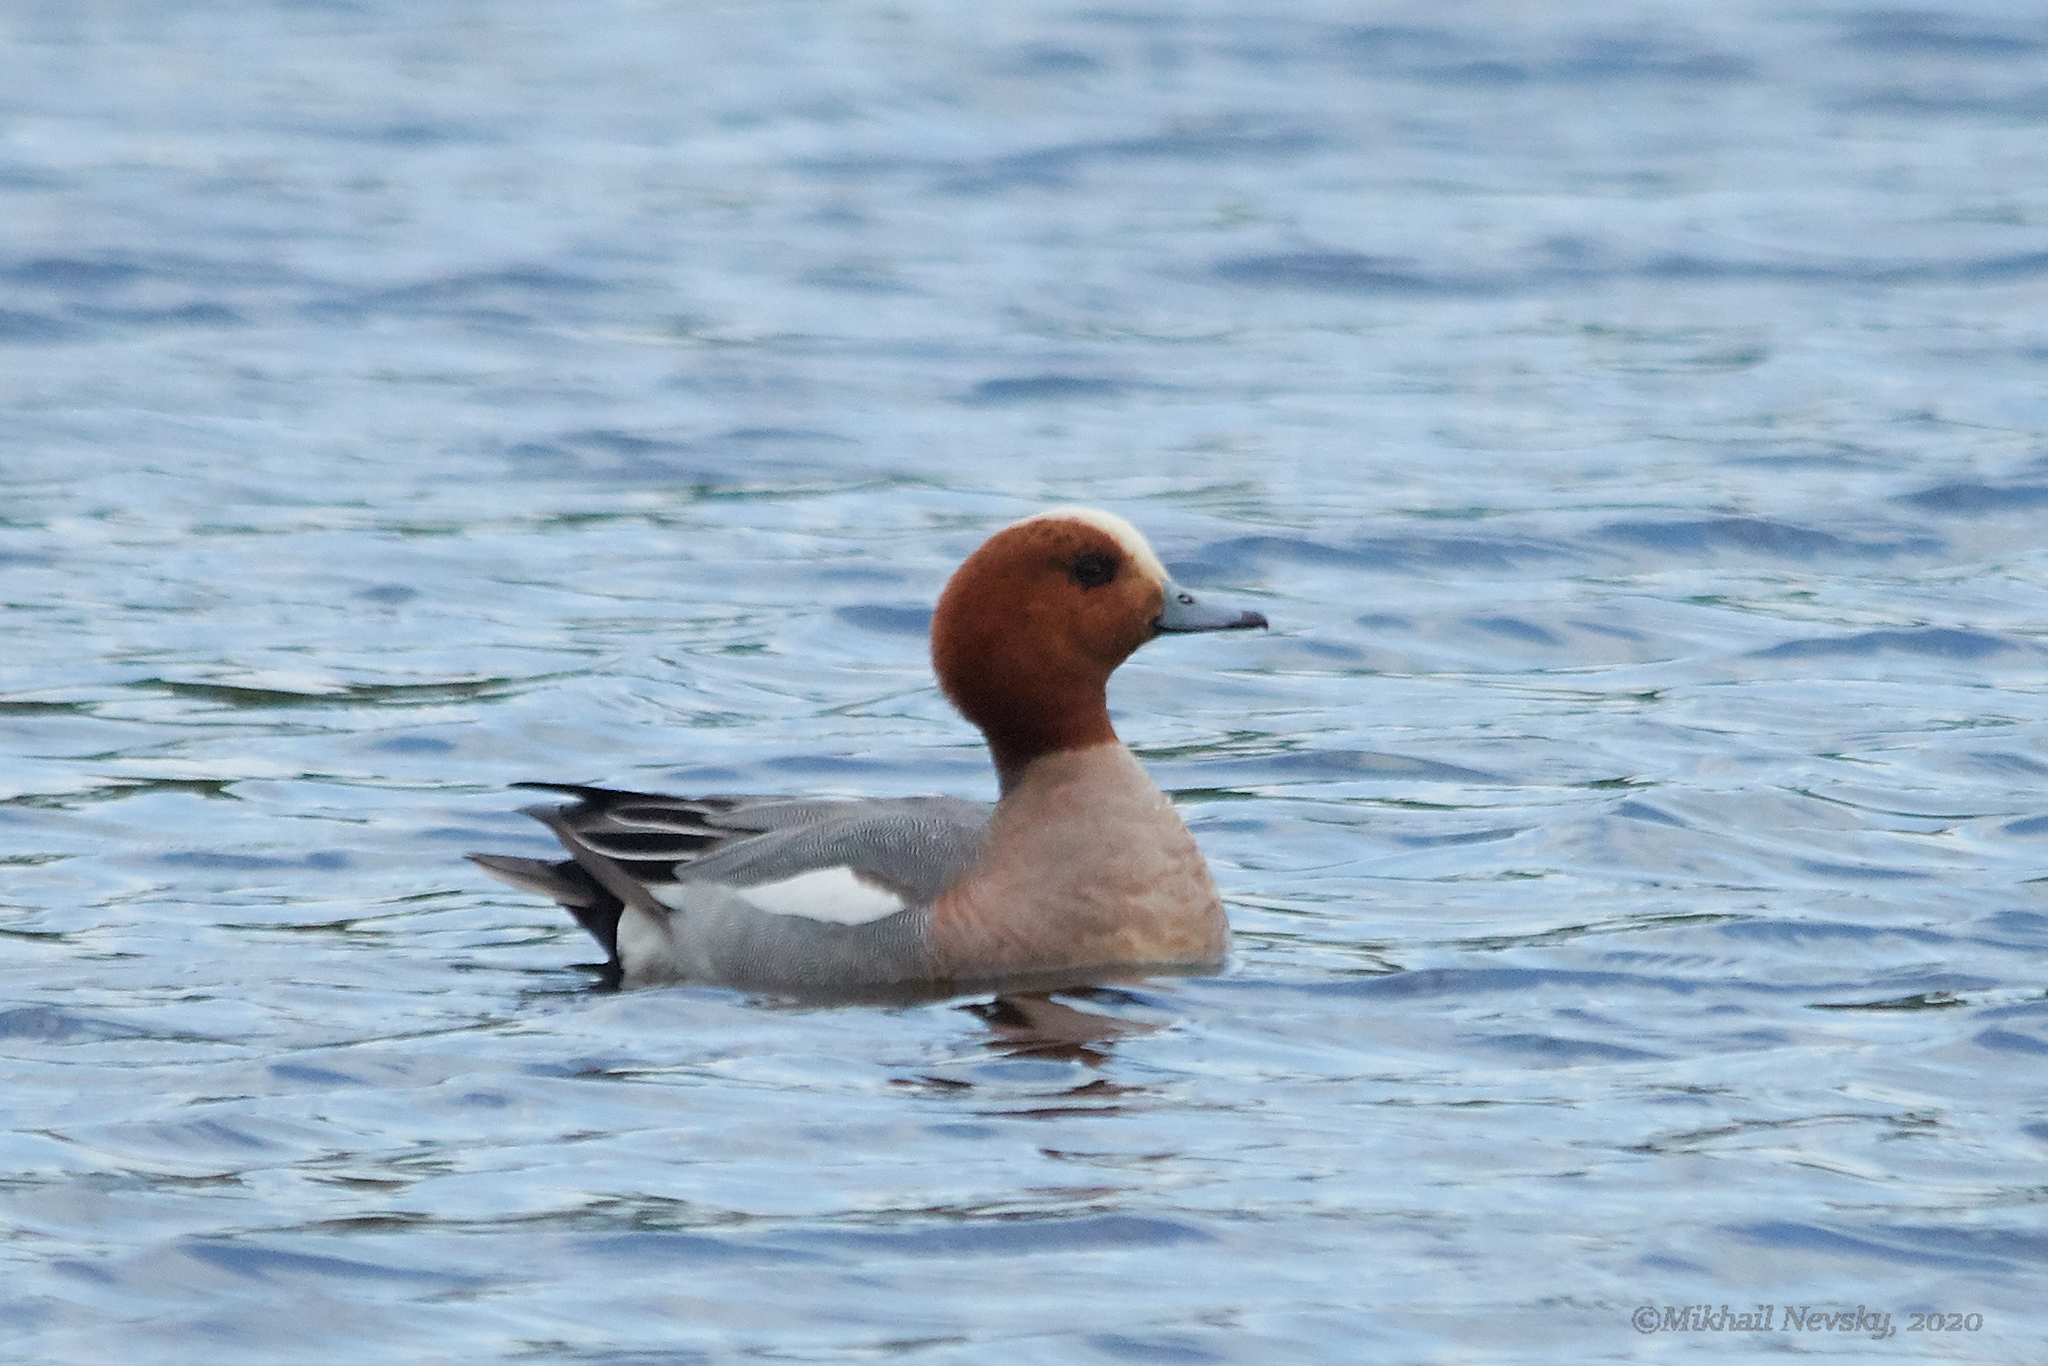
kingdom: Animalia
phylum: Chordata
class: Aves
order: Anseriformes
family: Anatidae
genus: Mareca
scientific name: Mareca penelope
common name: Eurasian wigeon
